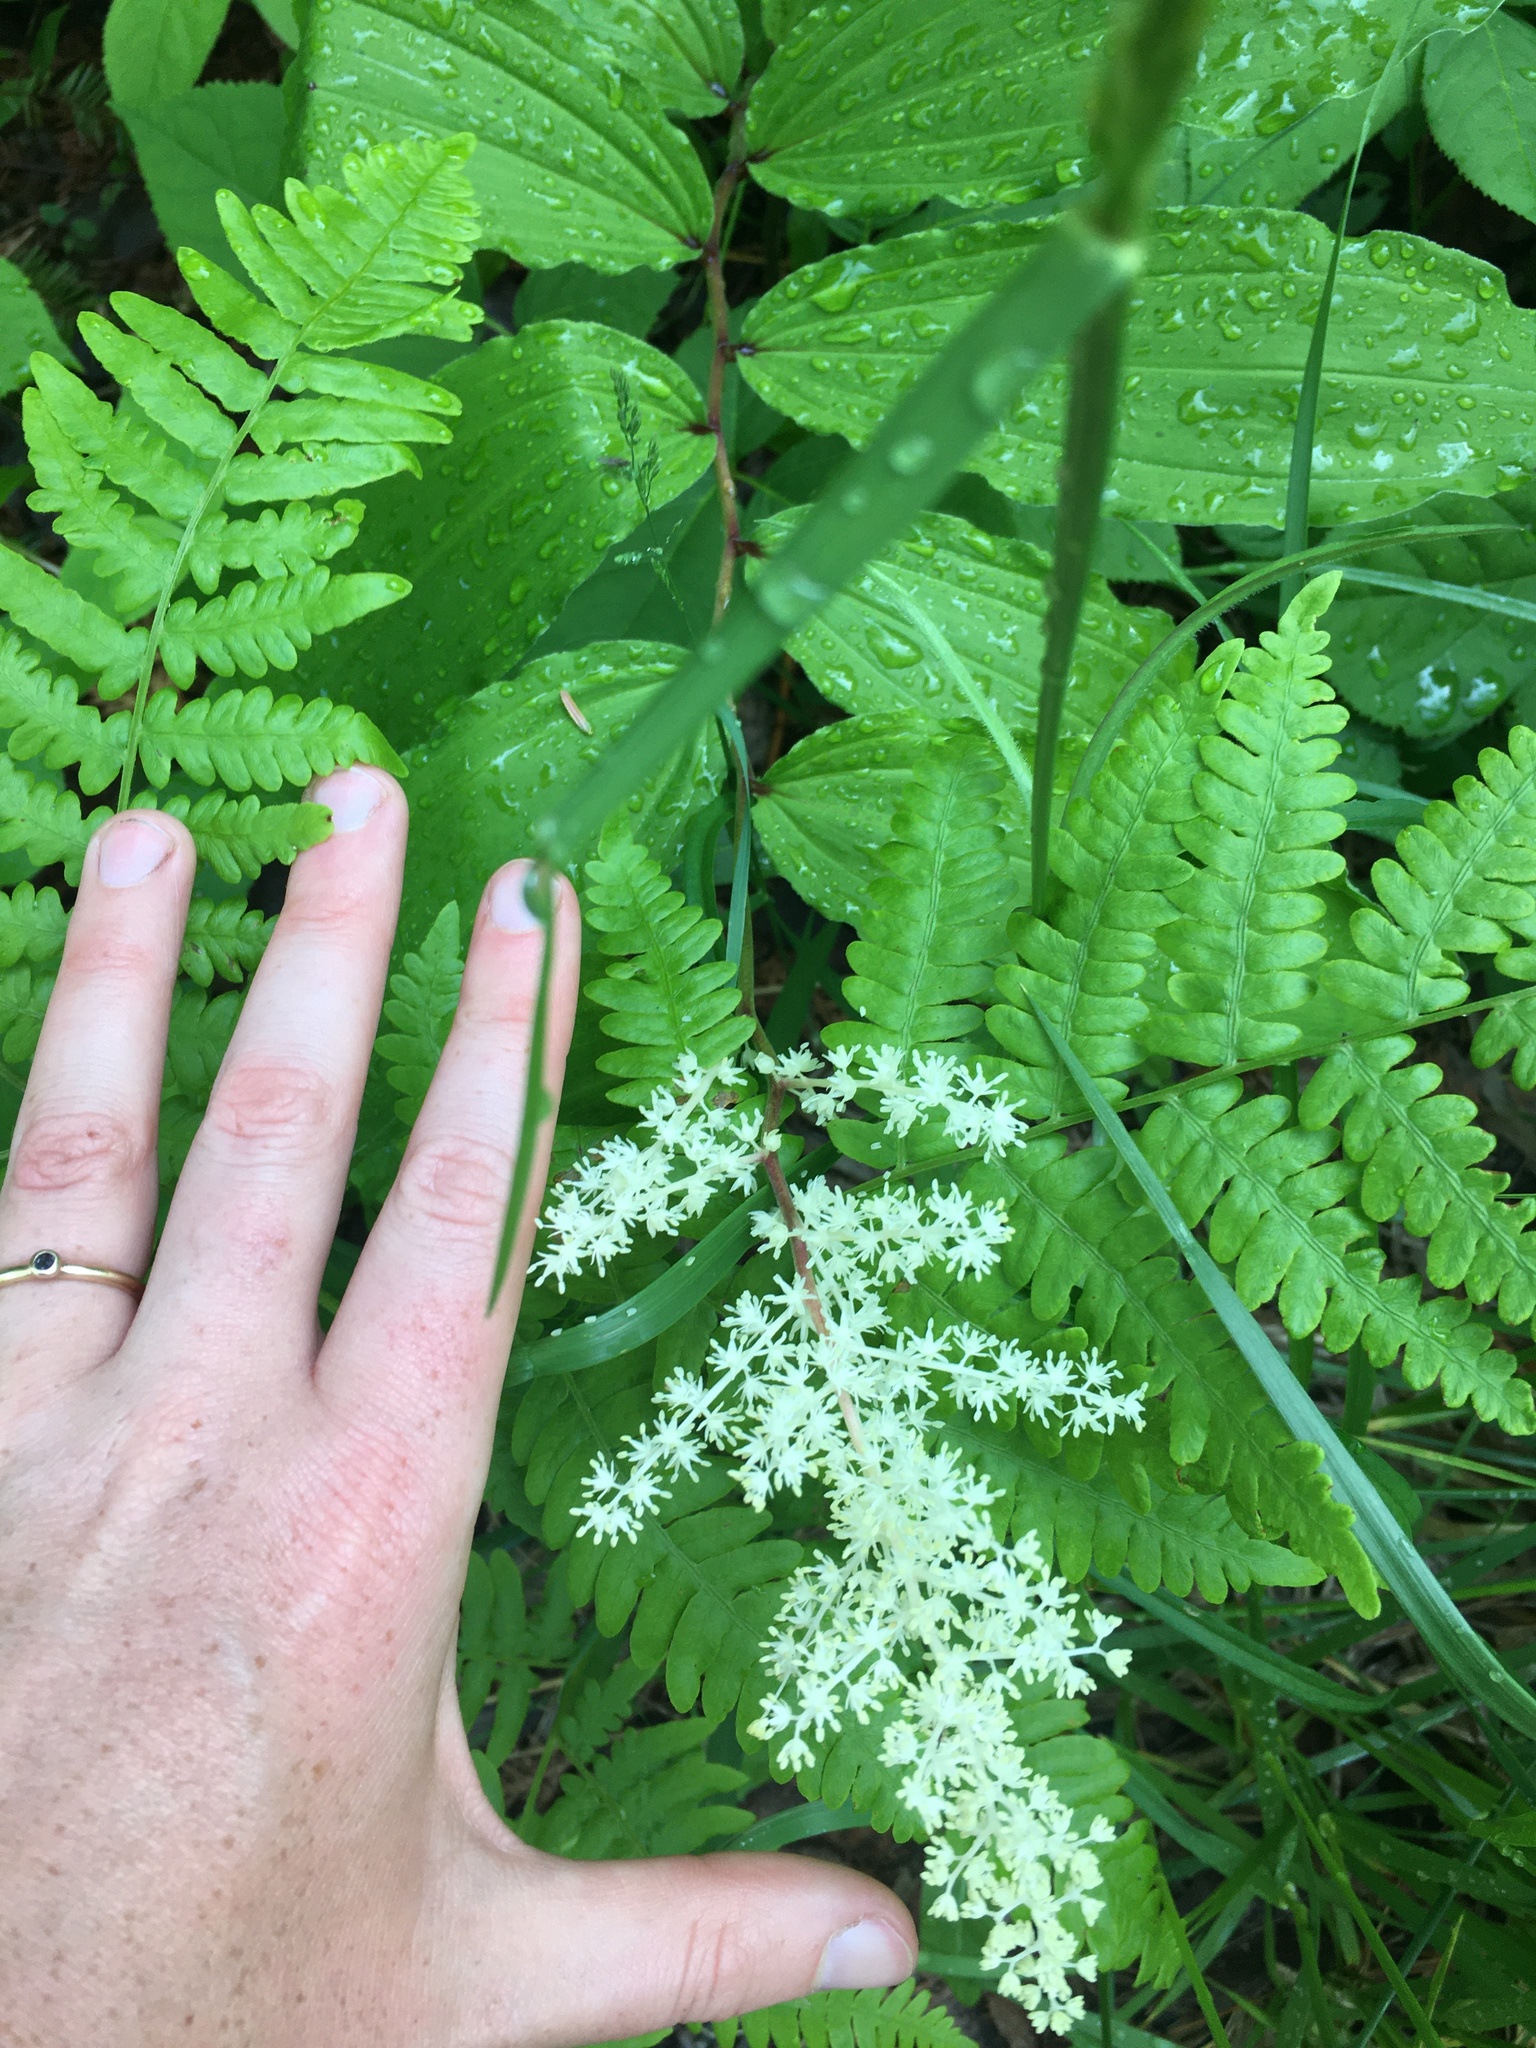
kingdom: Plantae
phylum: Tracheophyta
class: Liliopsida
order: Asparagales
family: Asparagaceae
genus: Maianthemum
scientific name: Maianthemum racemosum
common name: False spikenard
